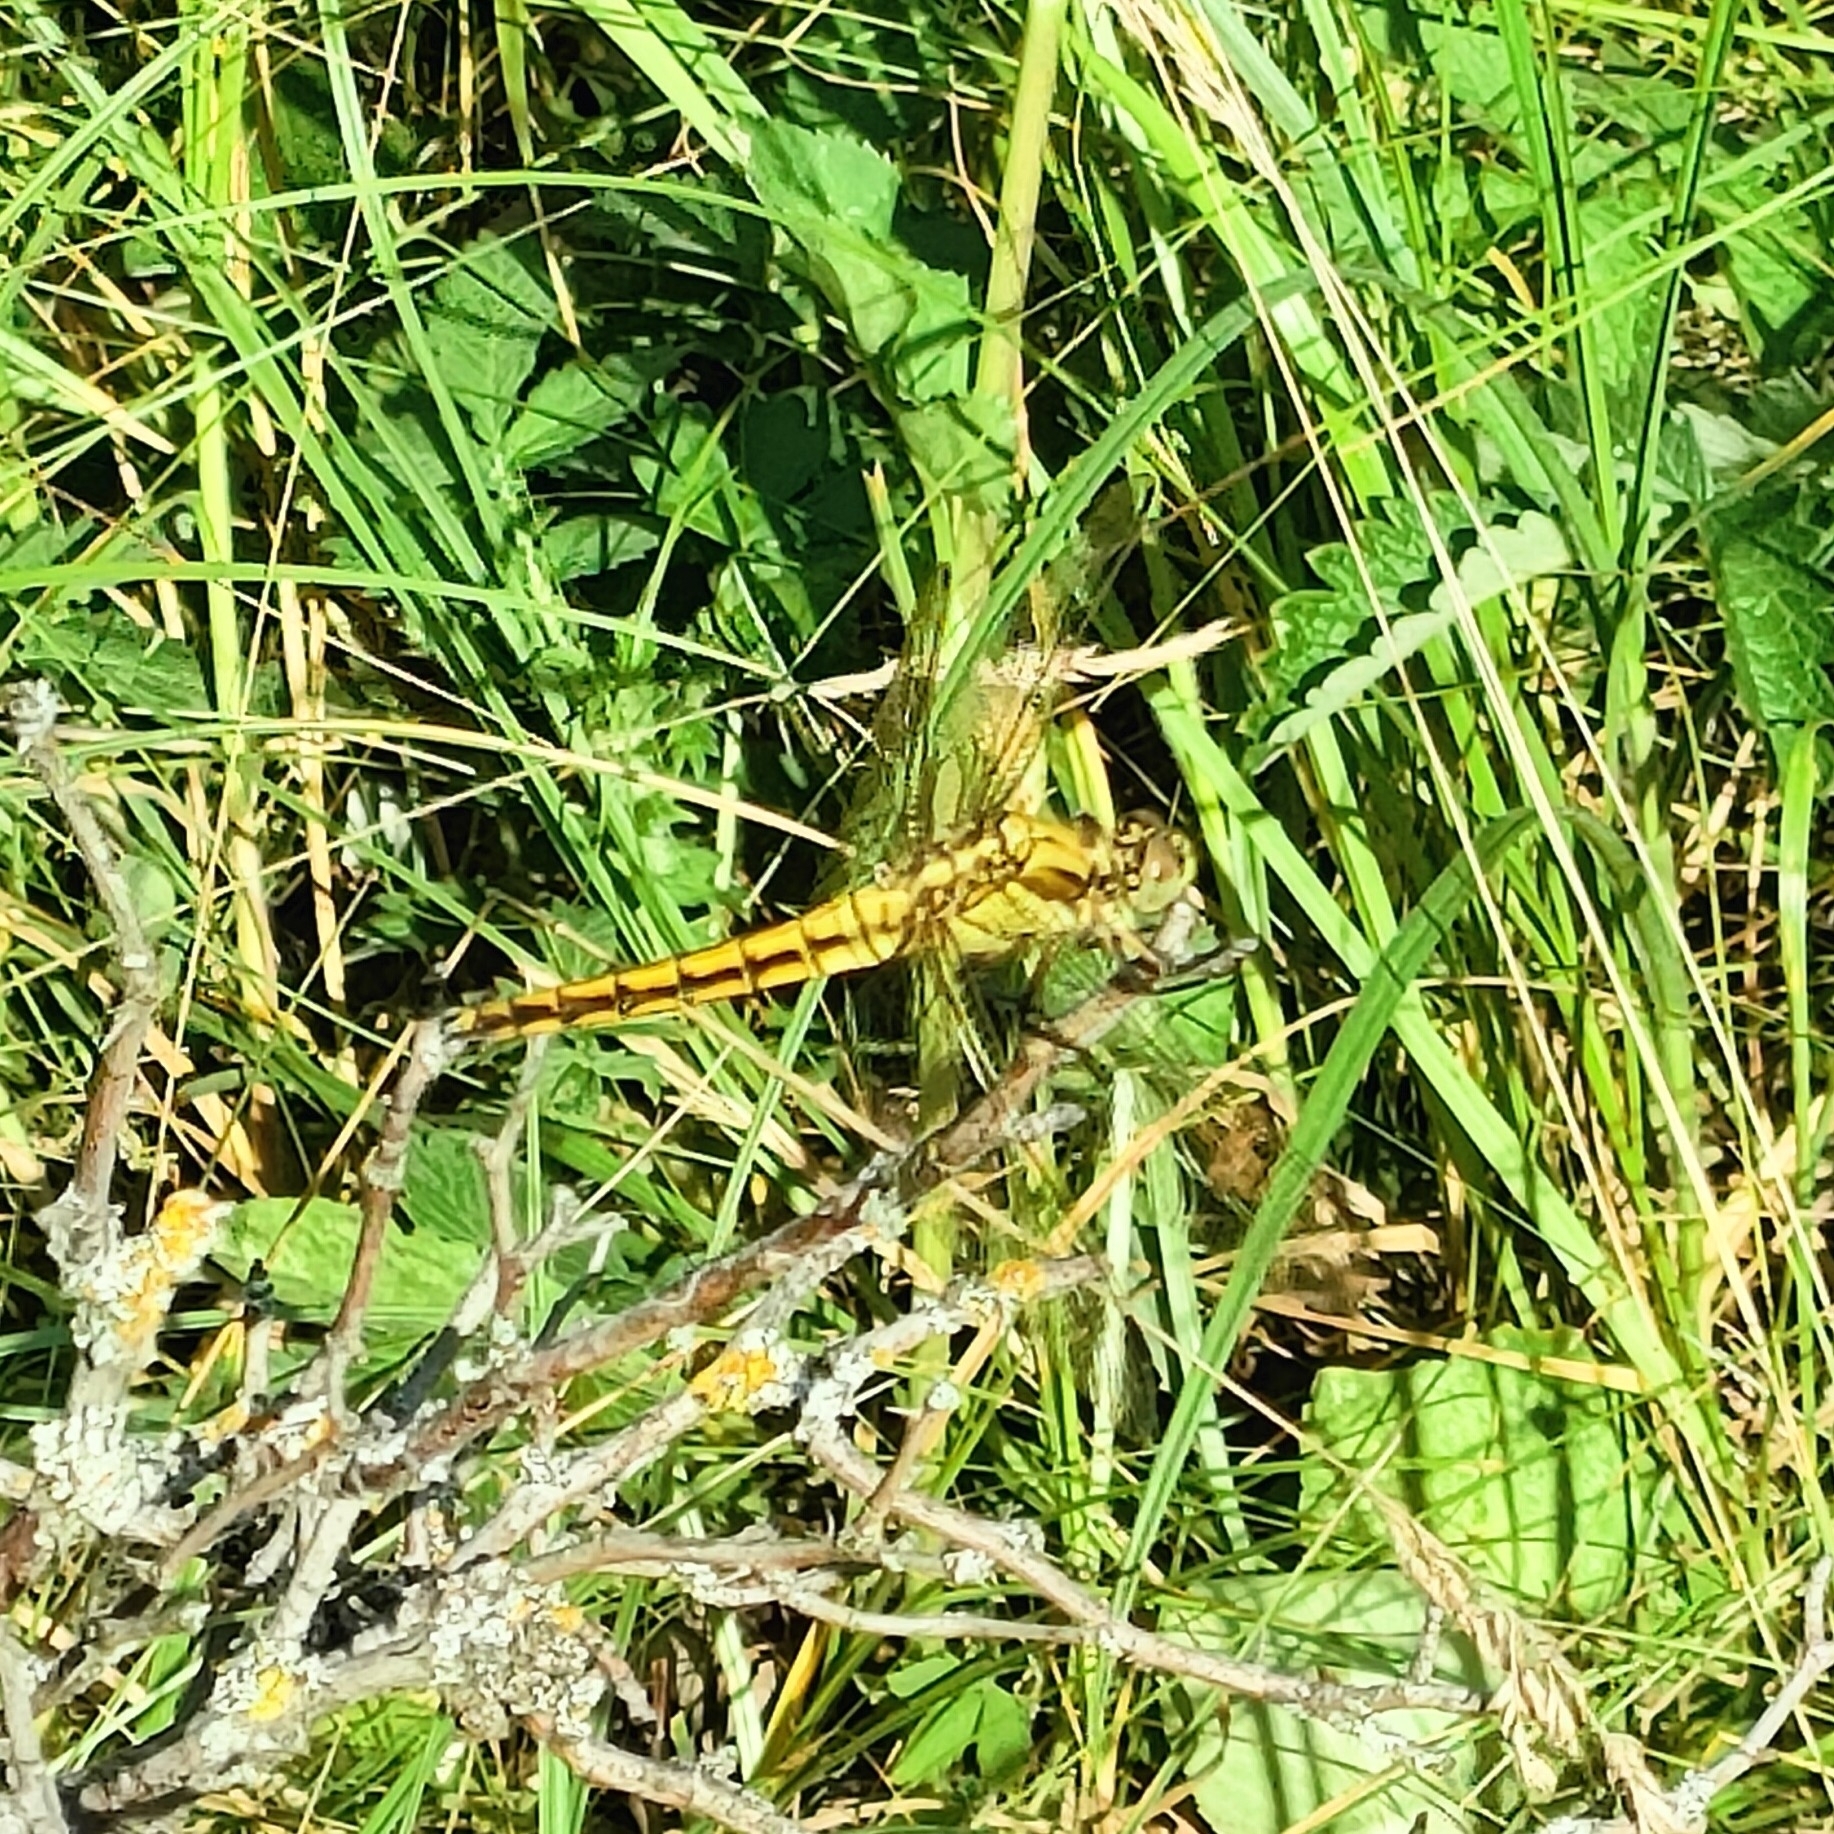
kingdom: Animalia
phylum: Arthropoda
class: Insecta
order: Odonata
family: Libellulidae
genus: Orthetrum
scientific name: Orthetrum cancellatum
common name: Black-tailed skimmer
